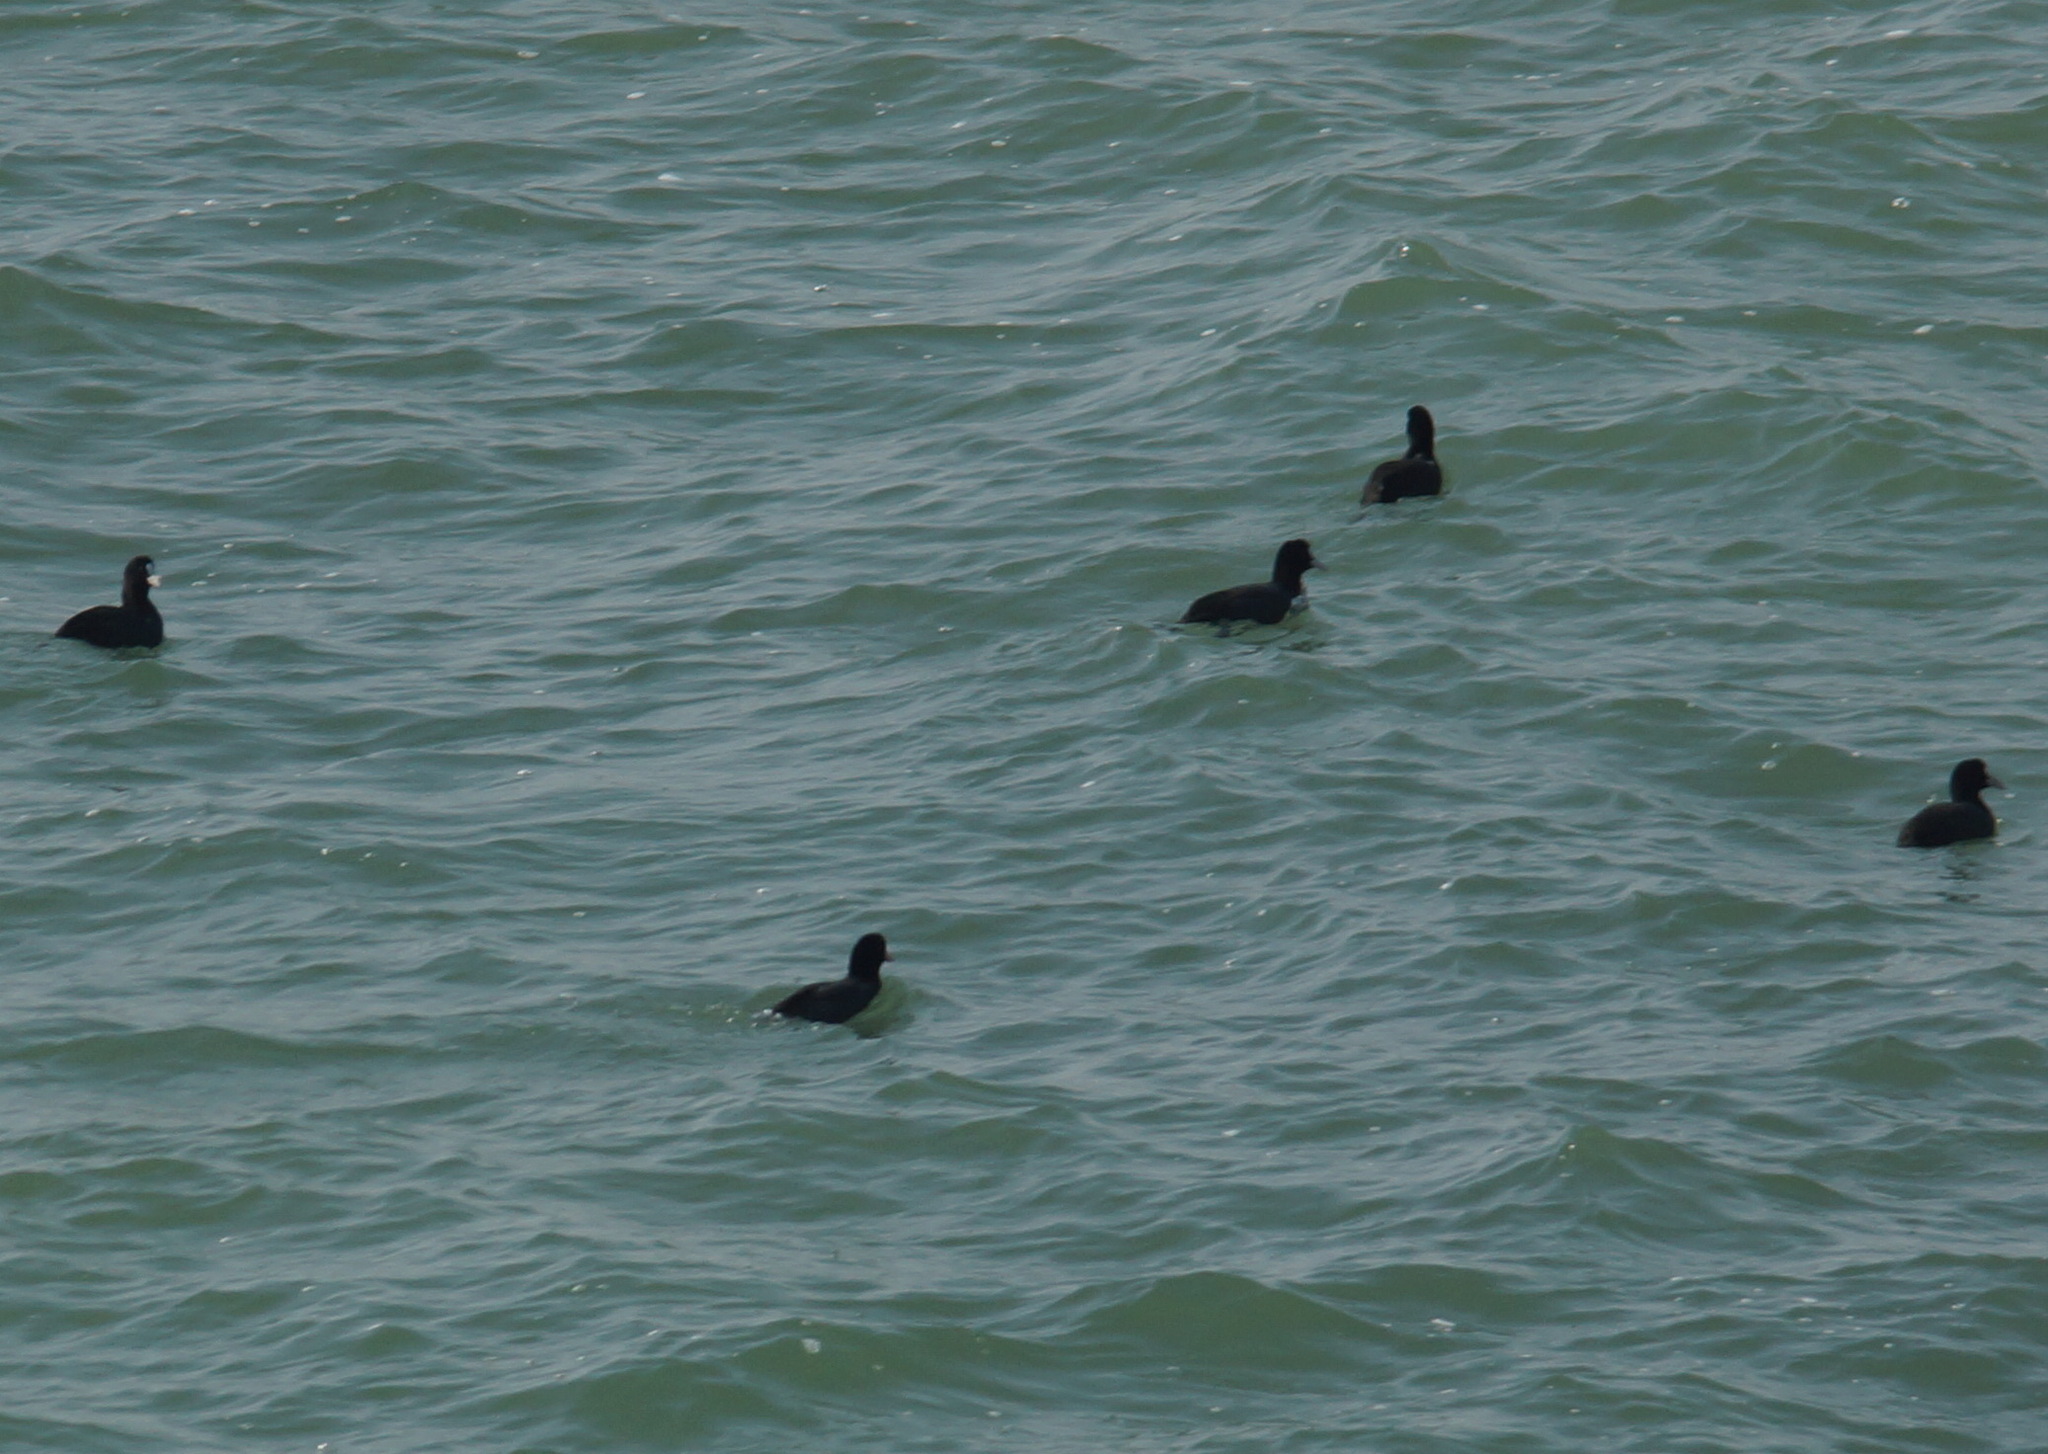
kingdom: Animalia
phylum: Chordata
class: Aves
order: Gruiformes
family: Rallidae
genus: Fulica
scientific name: Fulica atra
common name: Eurasian coot
